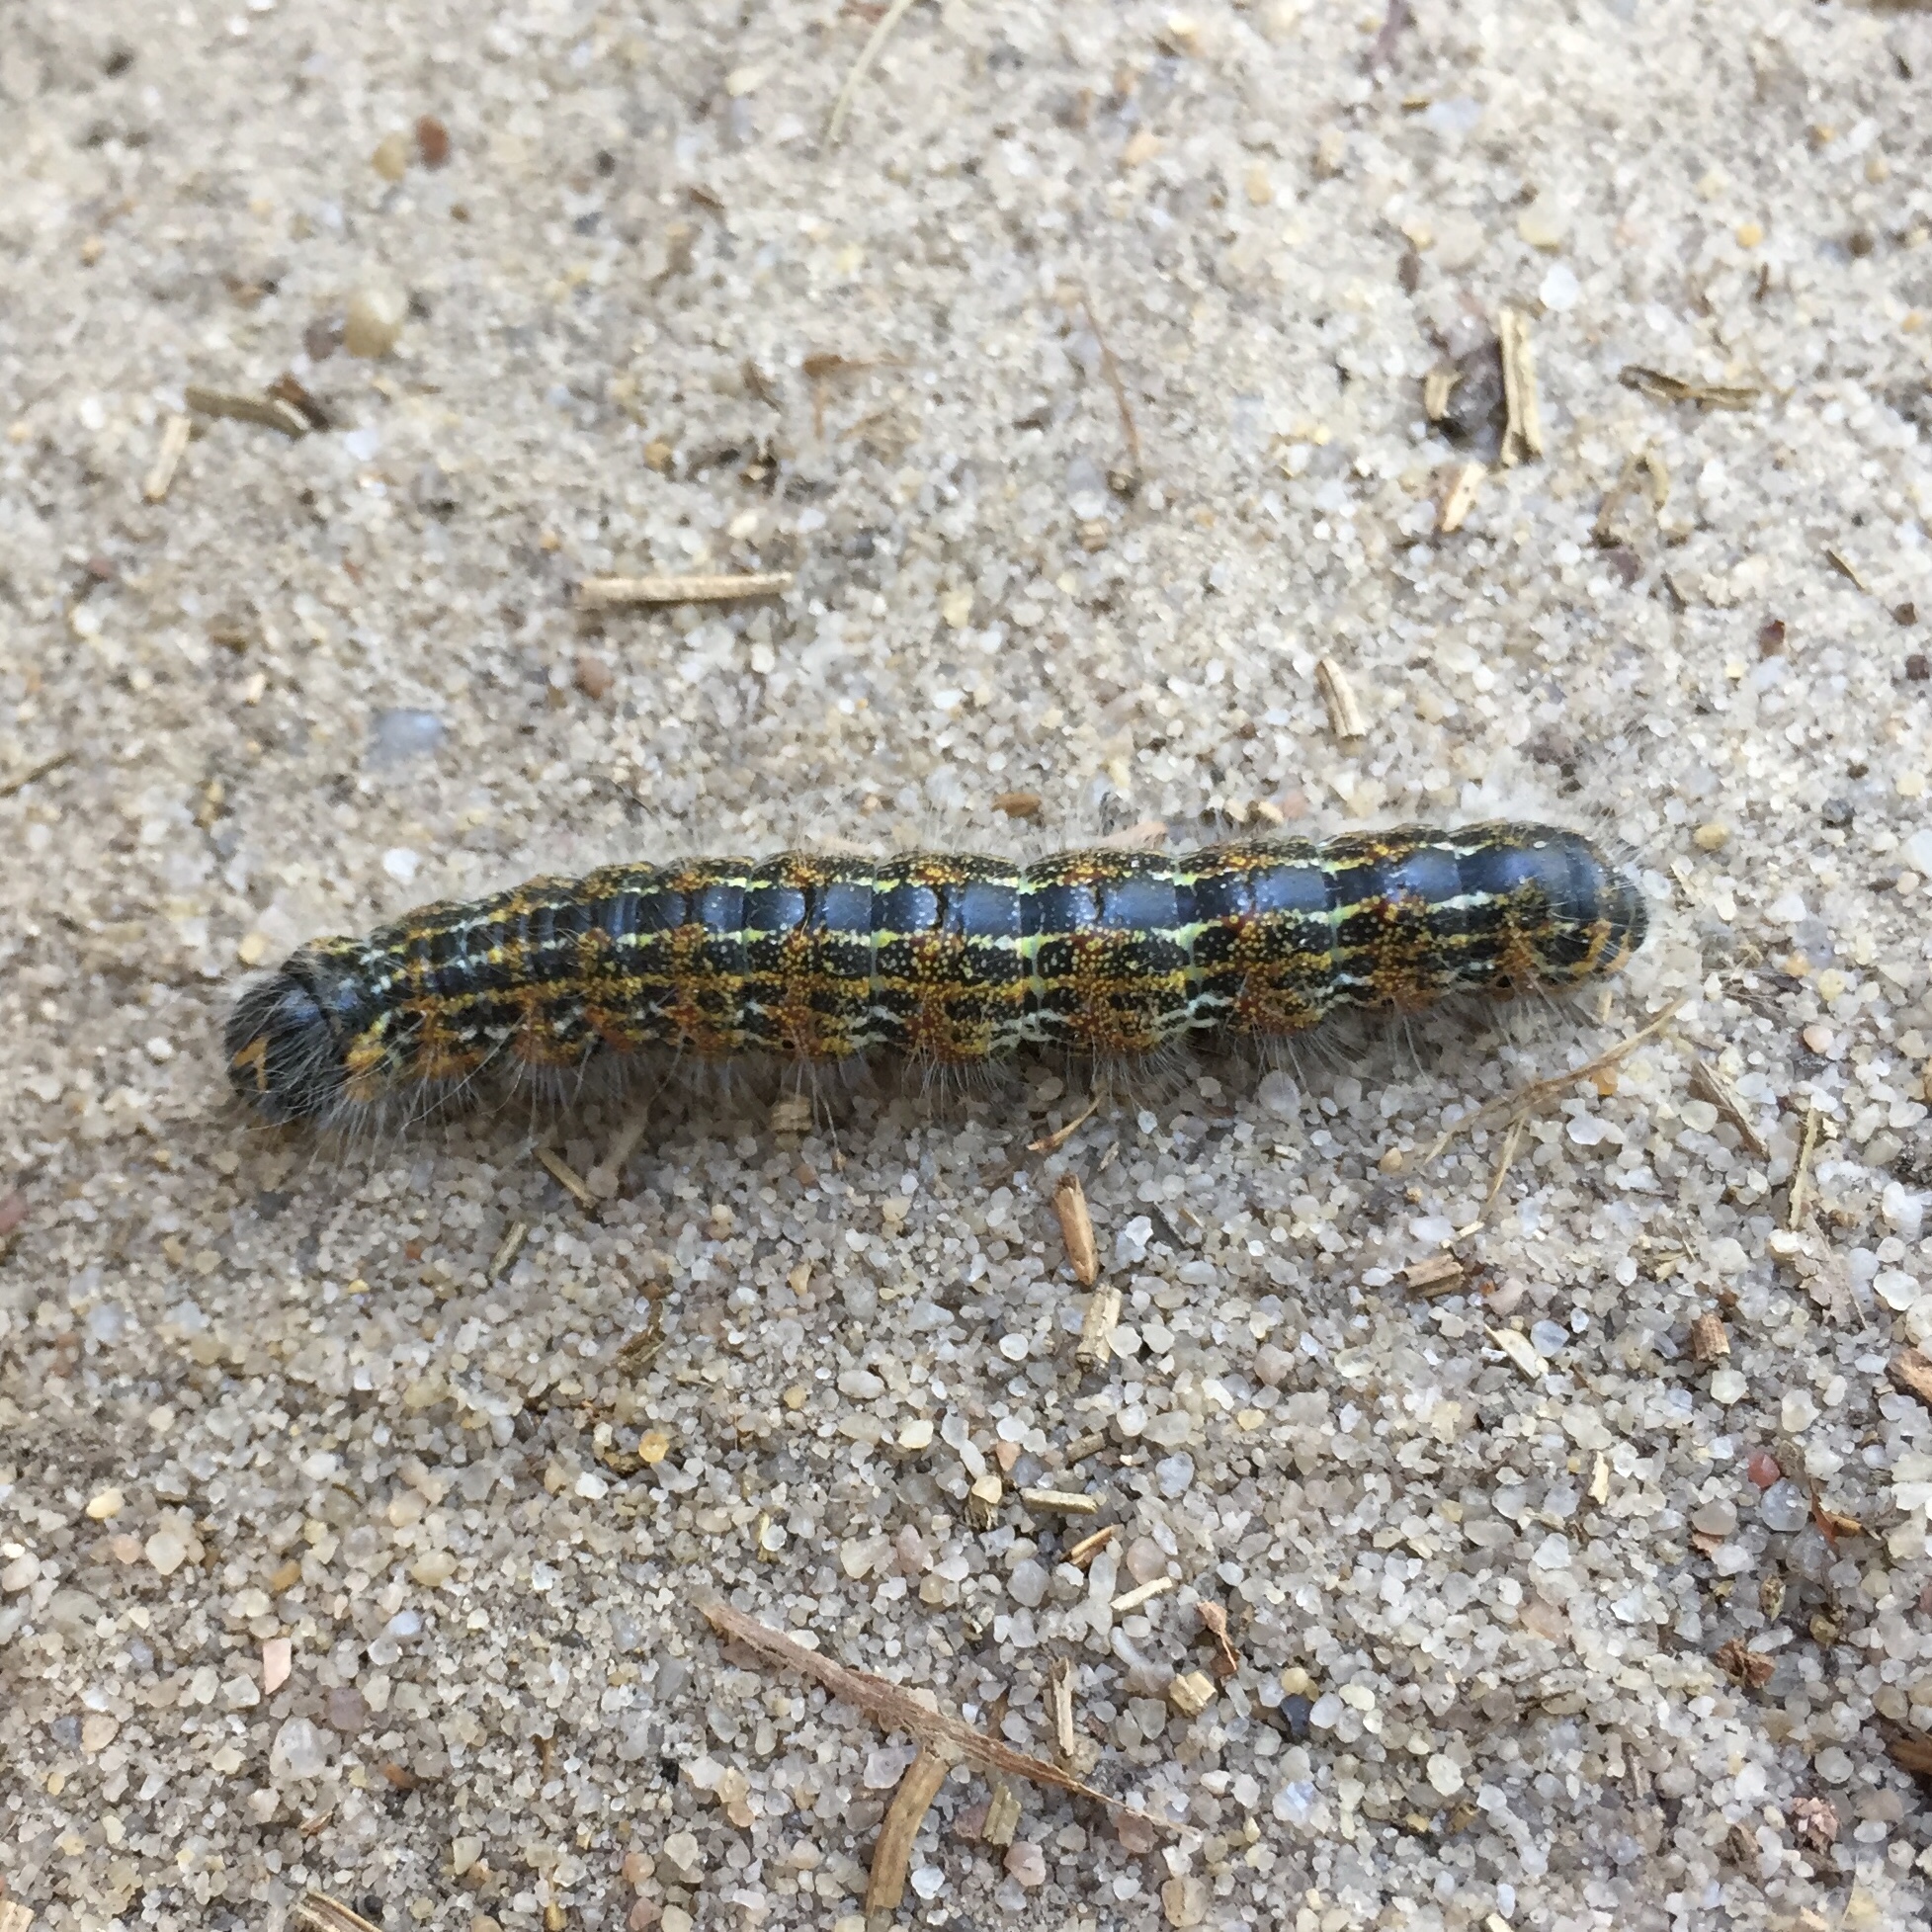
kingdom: Animalia
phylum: Arthropoda
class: Insecta
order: Lepidoptera
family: Notodontidae
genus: Phalera
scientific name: Phalera bucephala
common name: Buff-tip
